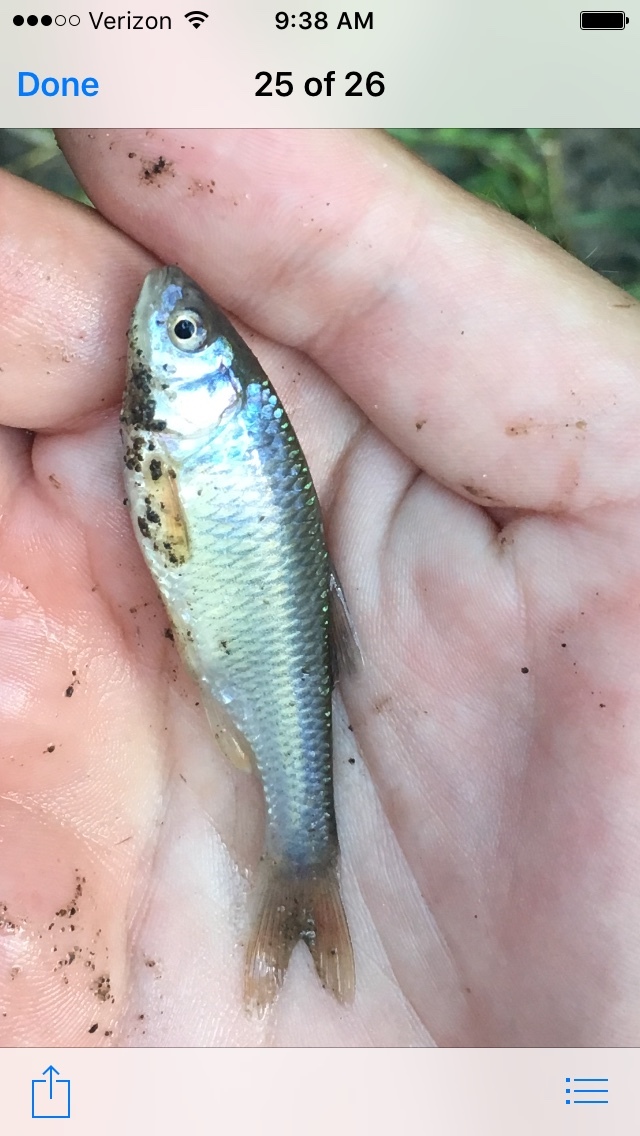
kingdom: Animalia
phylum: Chordata
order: Cypriniformes
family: Cyprinidae
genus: Cyprinella
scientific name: Cyprinella lutrensis
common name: Red shiner
